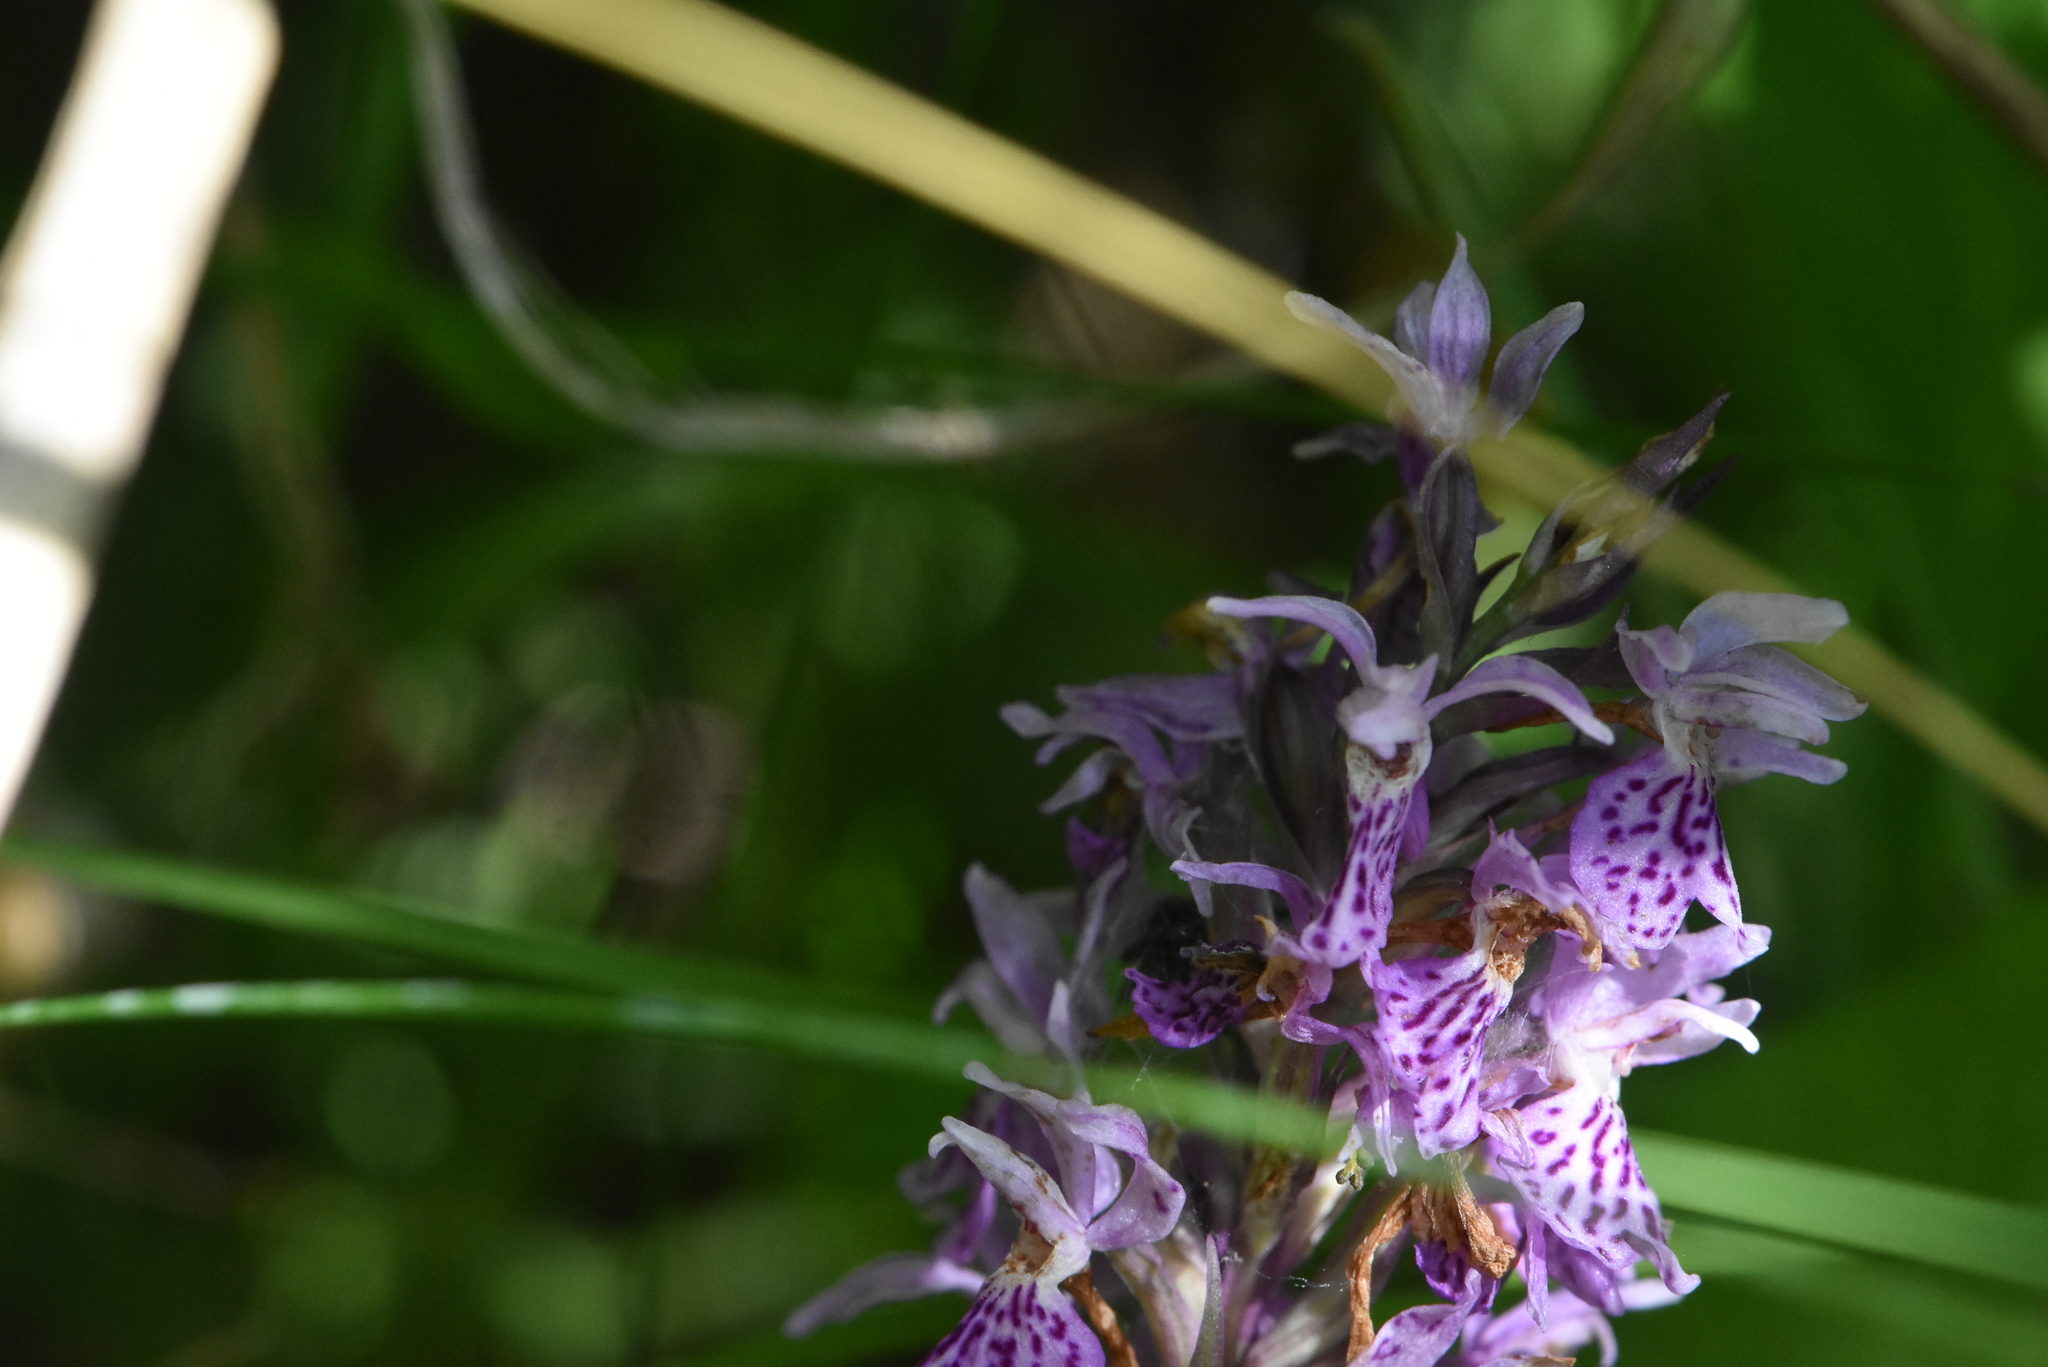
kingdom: Plantae
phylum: Tracheophyta
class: Liliopsida
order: Asparagales
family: Orchidaceae
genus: Dactylorhiza
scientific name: Dactylorhiza maculata
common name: Heath spotted-orchid
